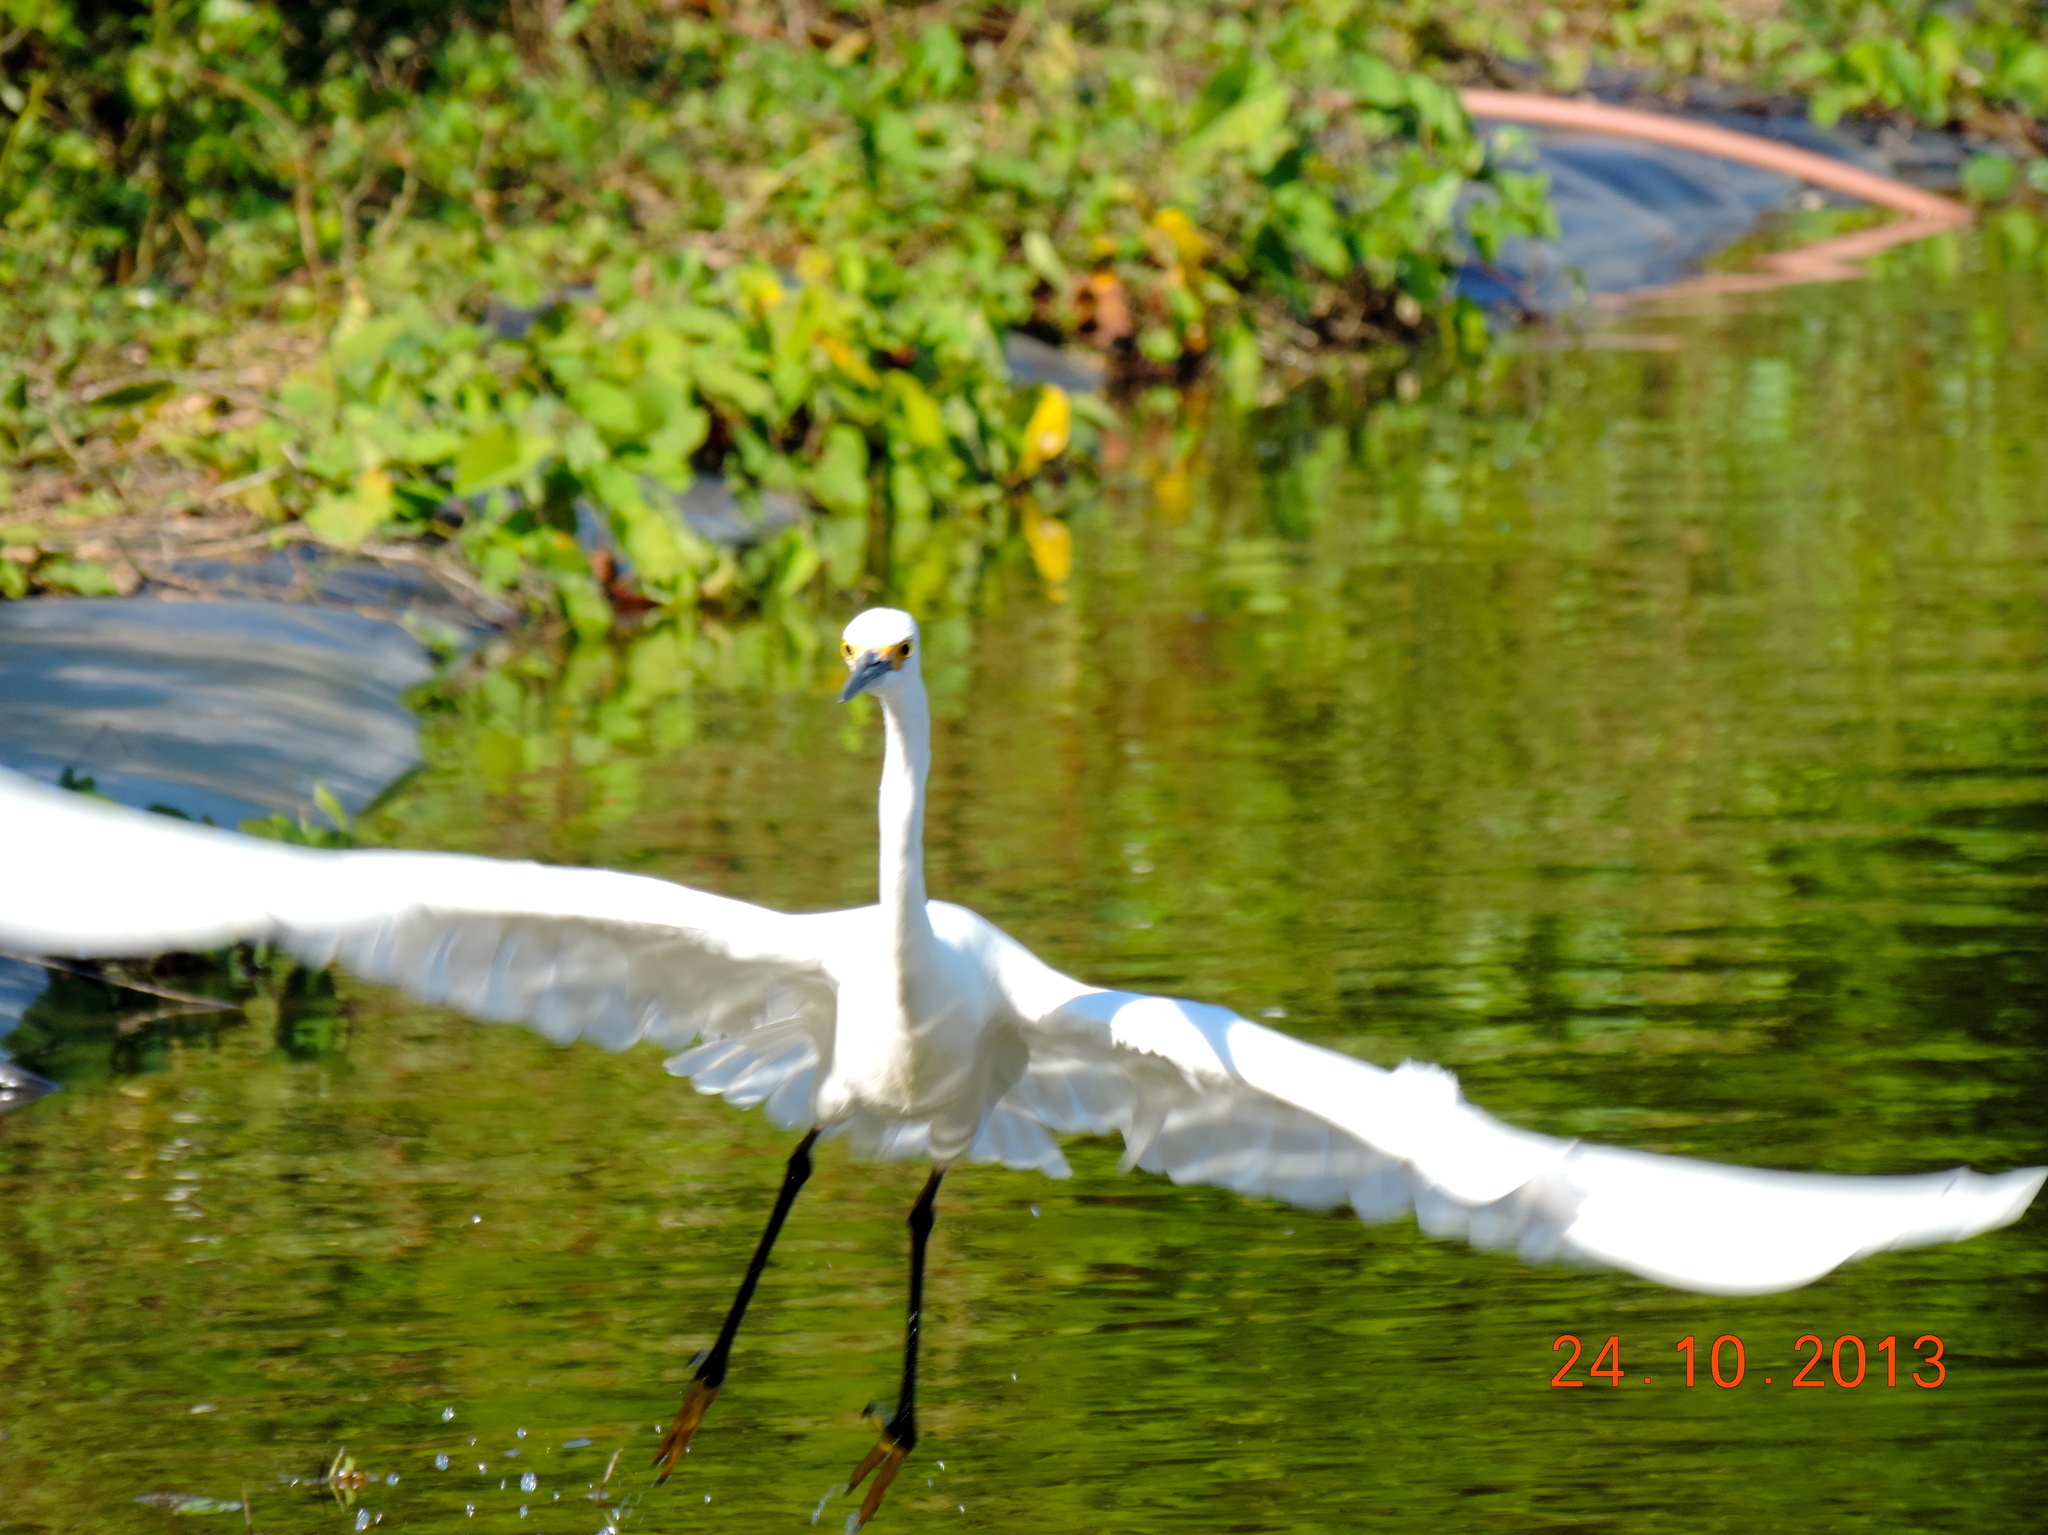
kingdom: Animalia
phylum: Chordata
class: Aves
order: Pelecaniformes
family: Ardeidae
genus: Egretta
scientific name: Egretta thula
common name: Snowy egret
